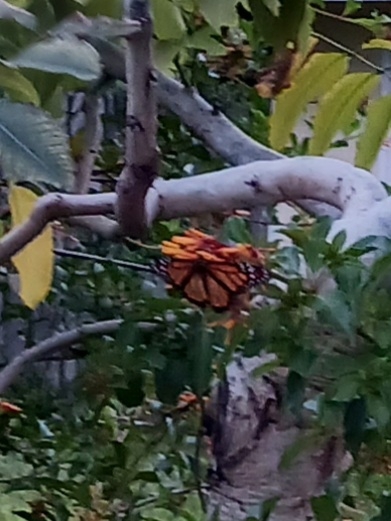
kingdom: Animalia
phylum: Arthropoda
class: Insecta
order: Lepidoptera
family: Nymphalidae
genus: Danaus
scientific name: Danaus plexippus
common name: Monarch
